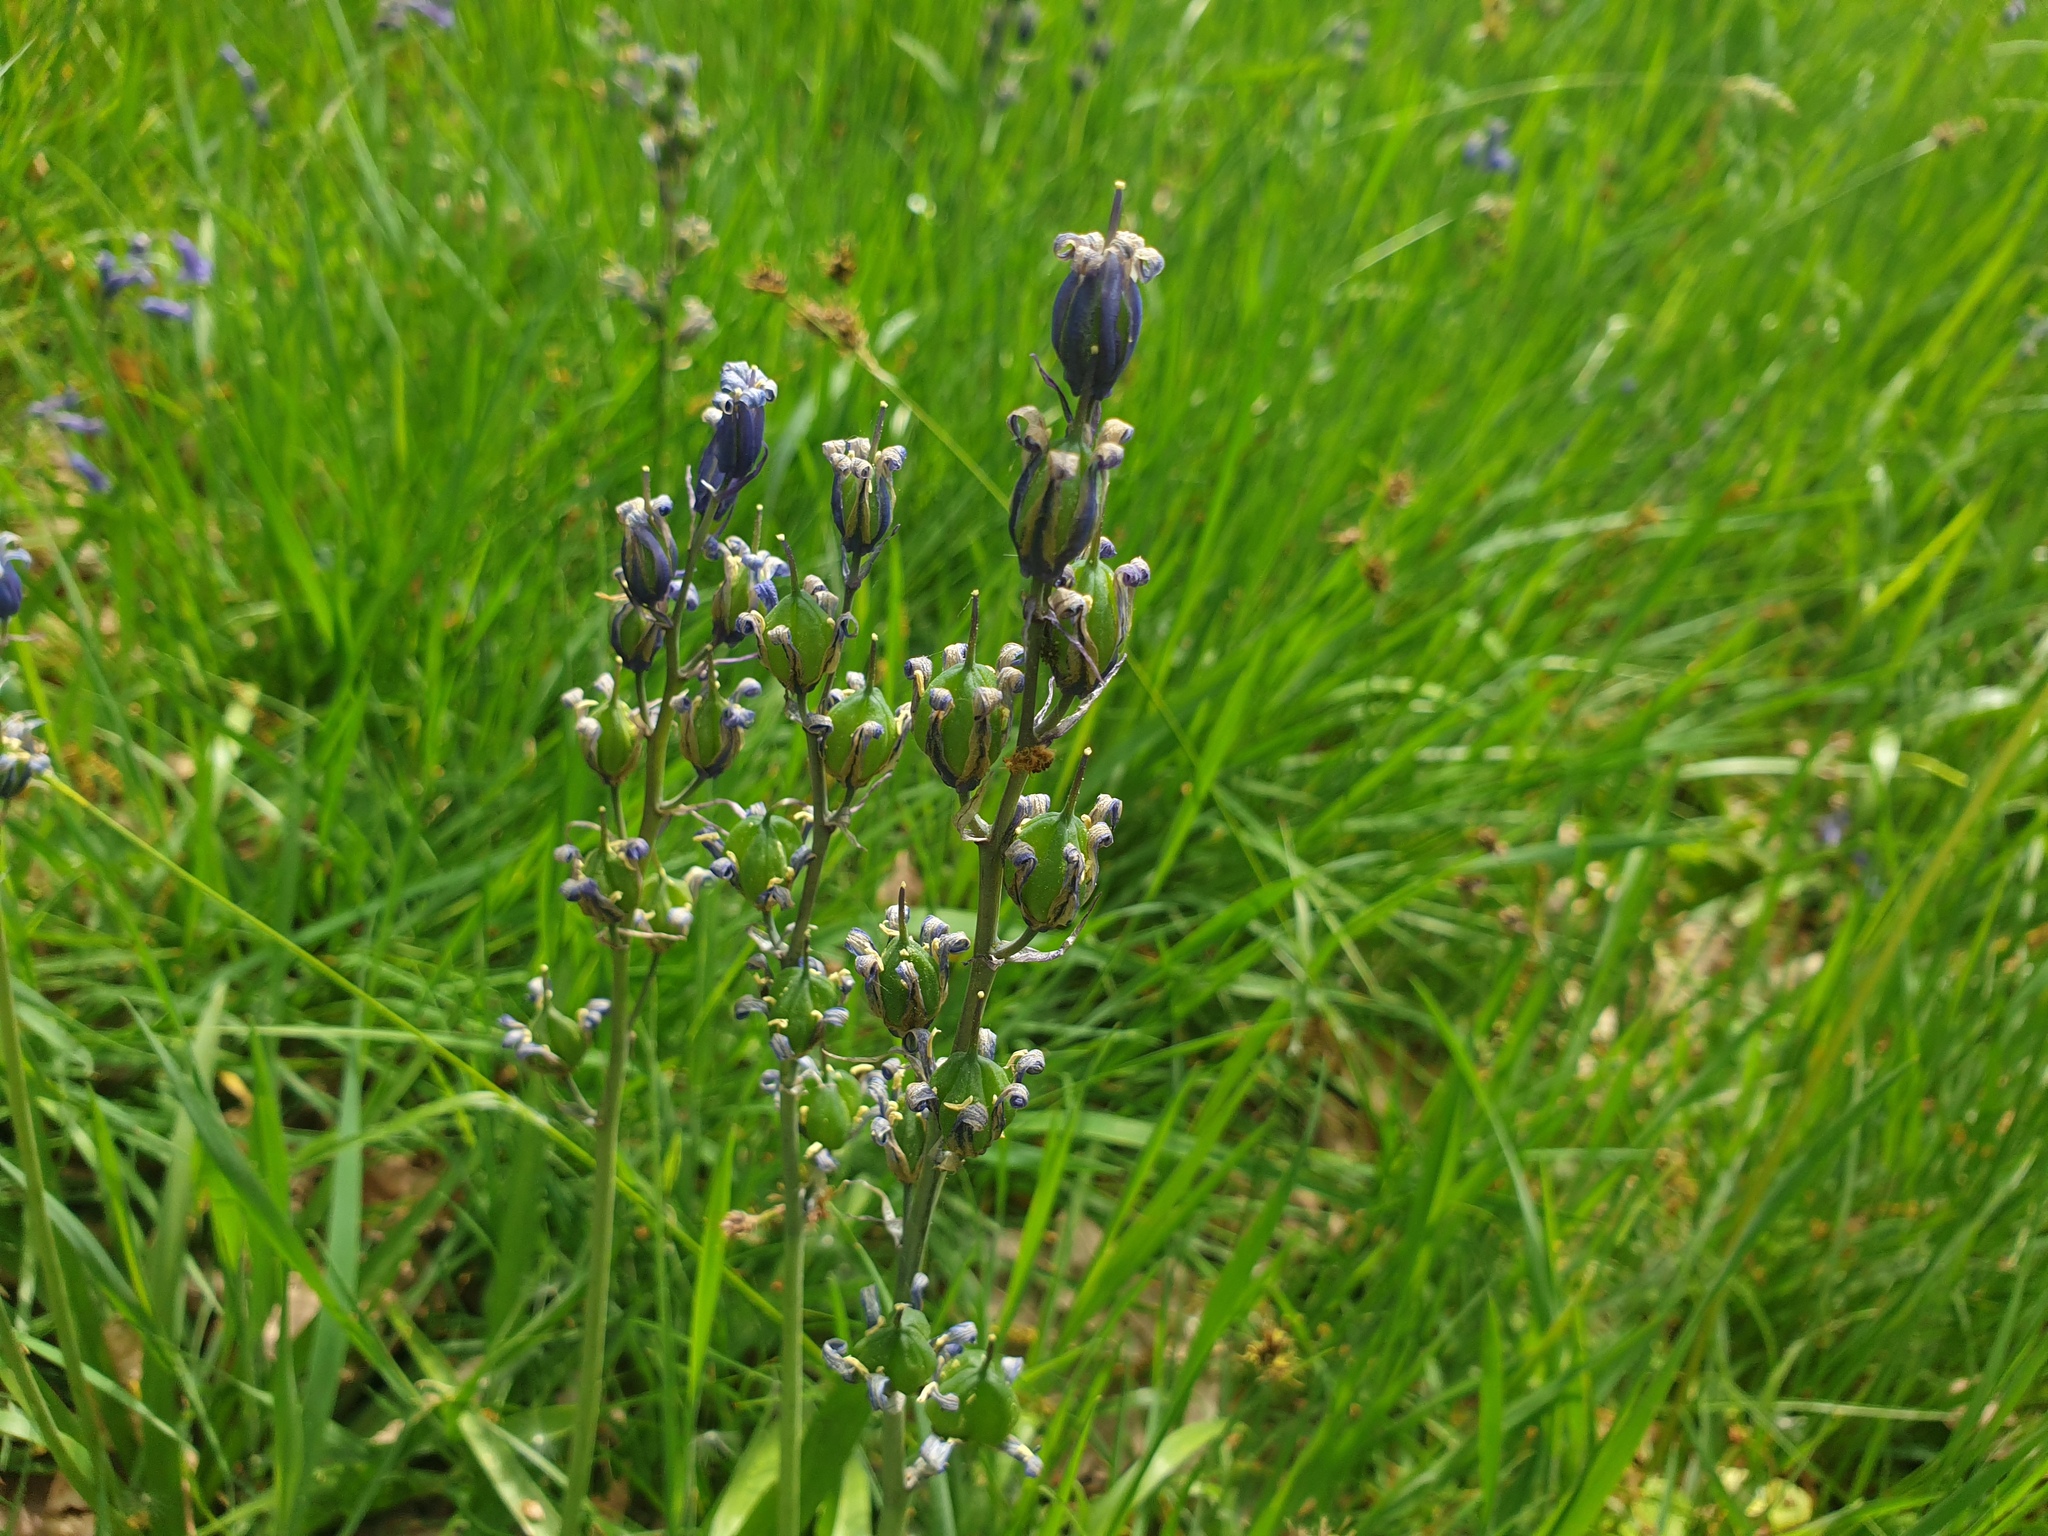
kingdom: Plantae
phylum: Tracheophyta
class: Liliopsida
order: Asparagales
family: Asparagaceae
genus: Hyacinthoides
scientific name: Hyacinthoides non-scripta
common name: Bluebell
